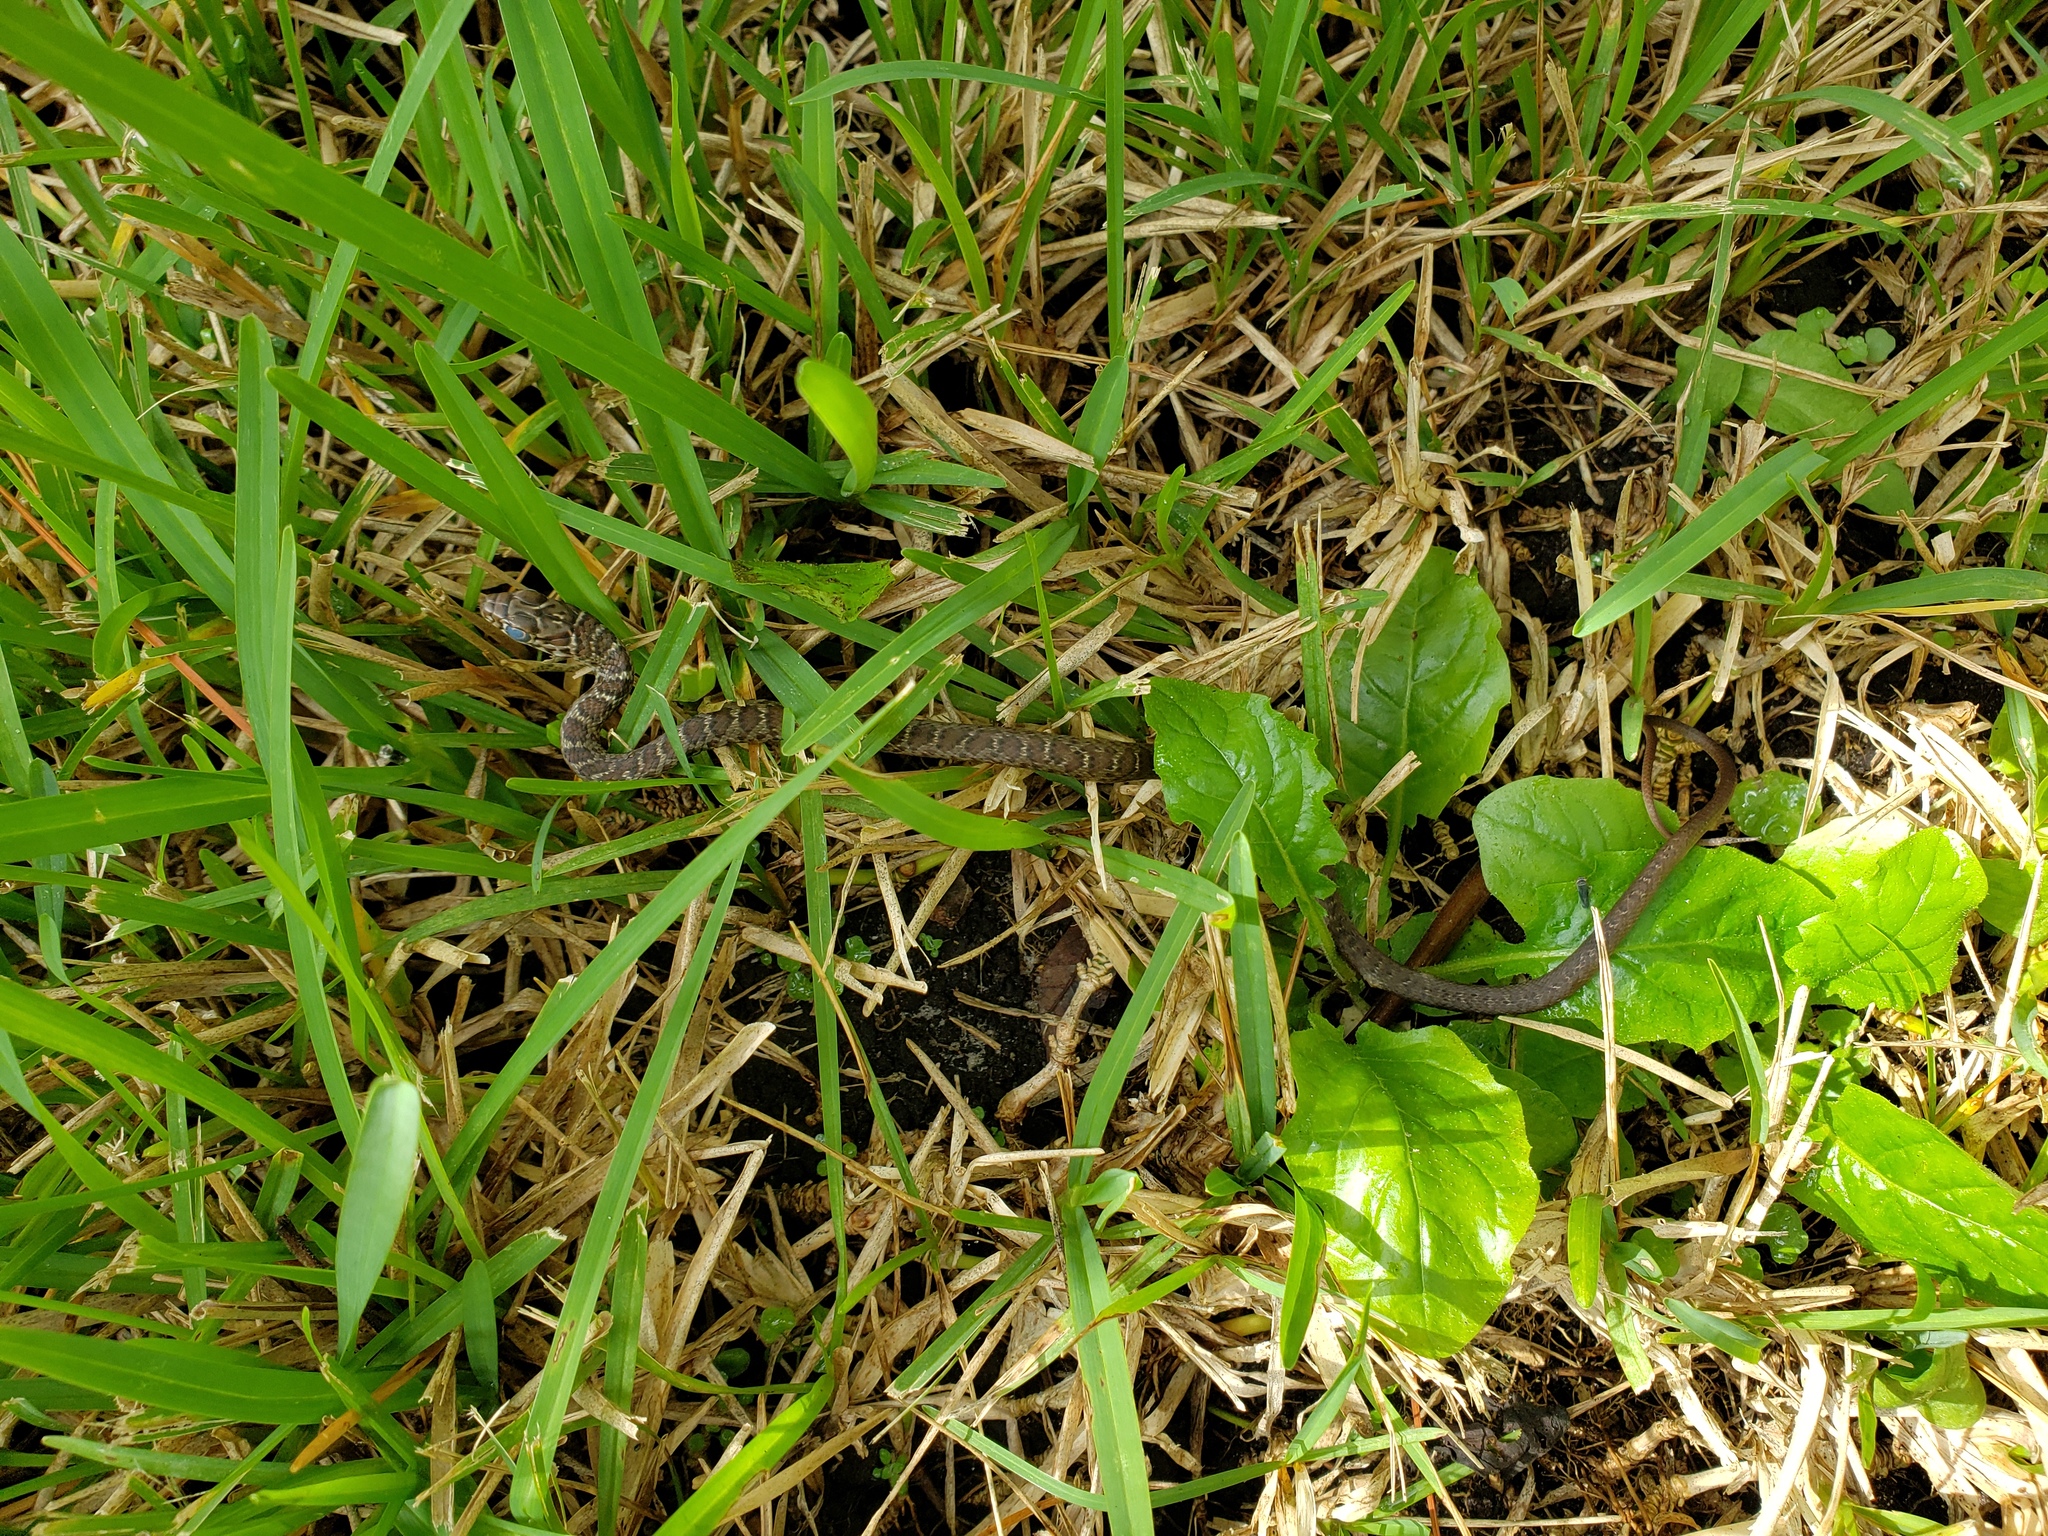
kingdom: Animalia
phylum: Chordata
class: Squamata
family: Colubridae
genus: Coluber
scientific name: Coluber constrictor
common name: Eastern racer
